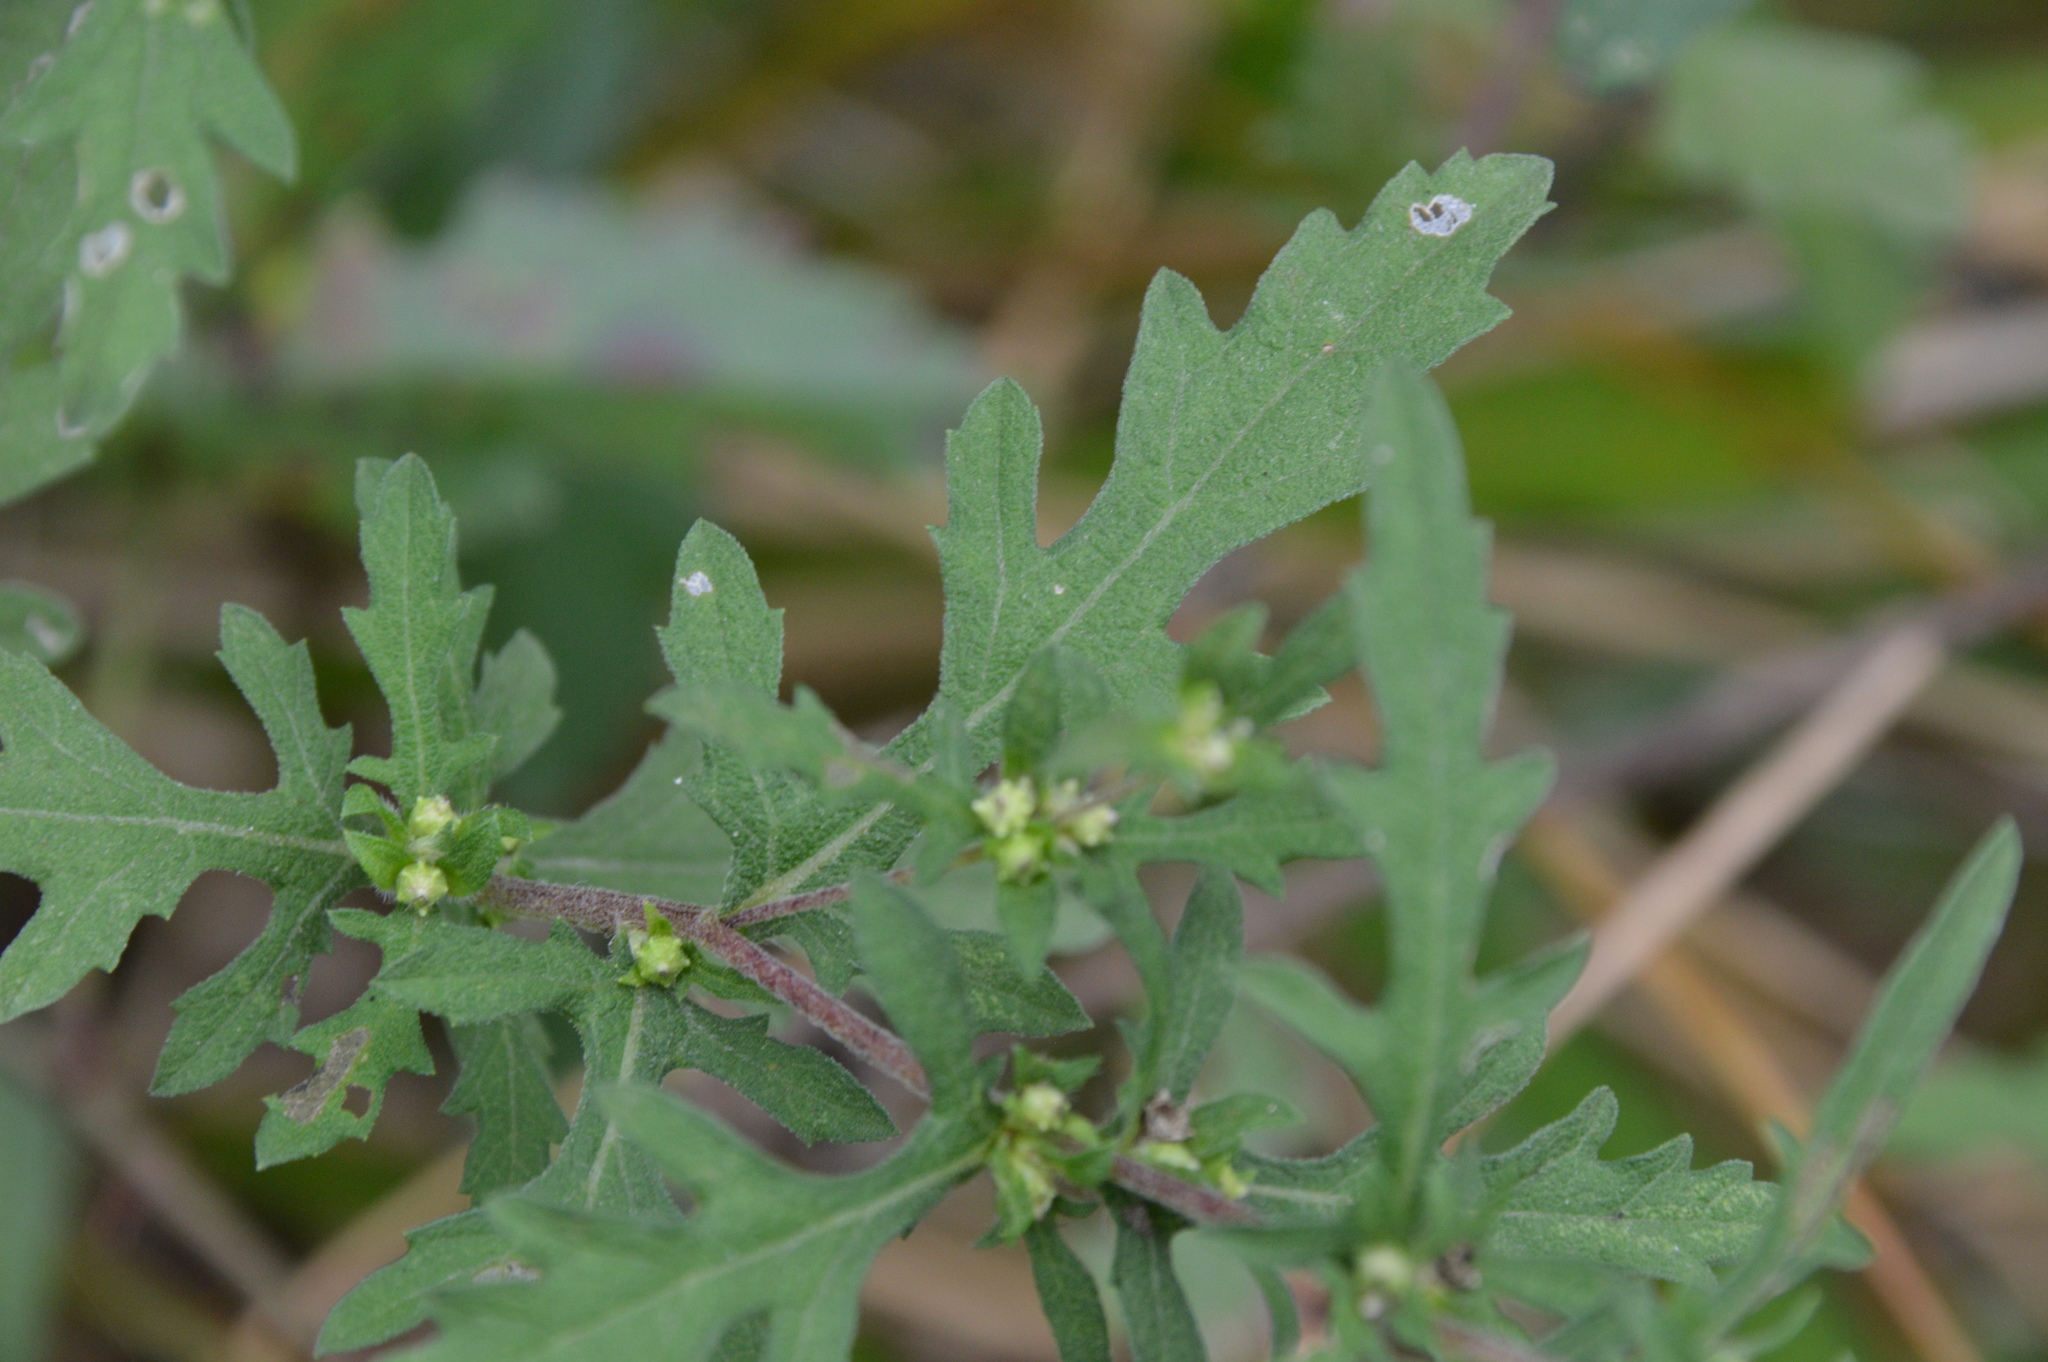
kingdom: Animalia
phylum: Arthropoda
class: Arachnida
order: Trombidiformes
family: Eriophyidae
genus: Aceria
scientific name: Aceria
